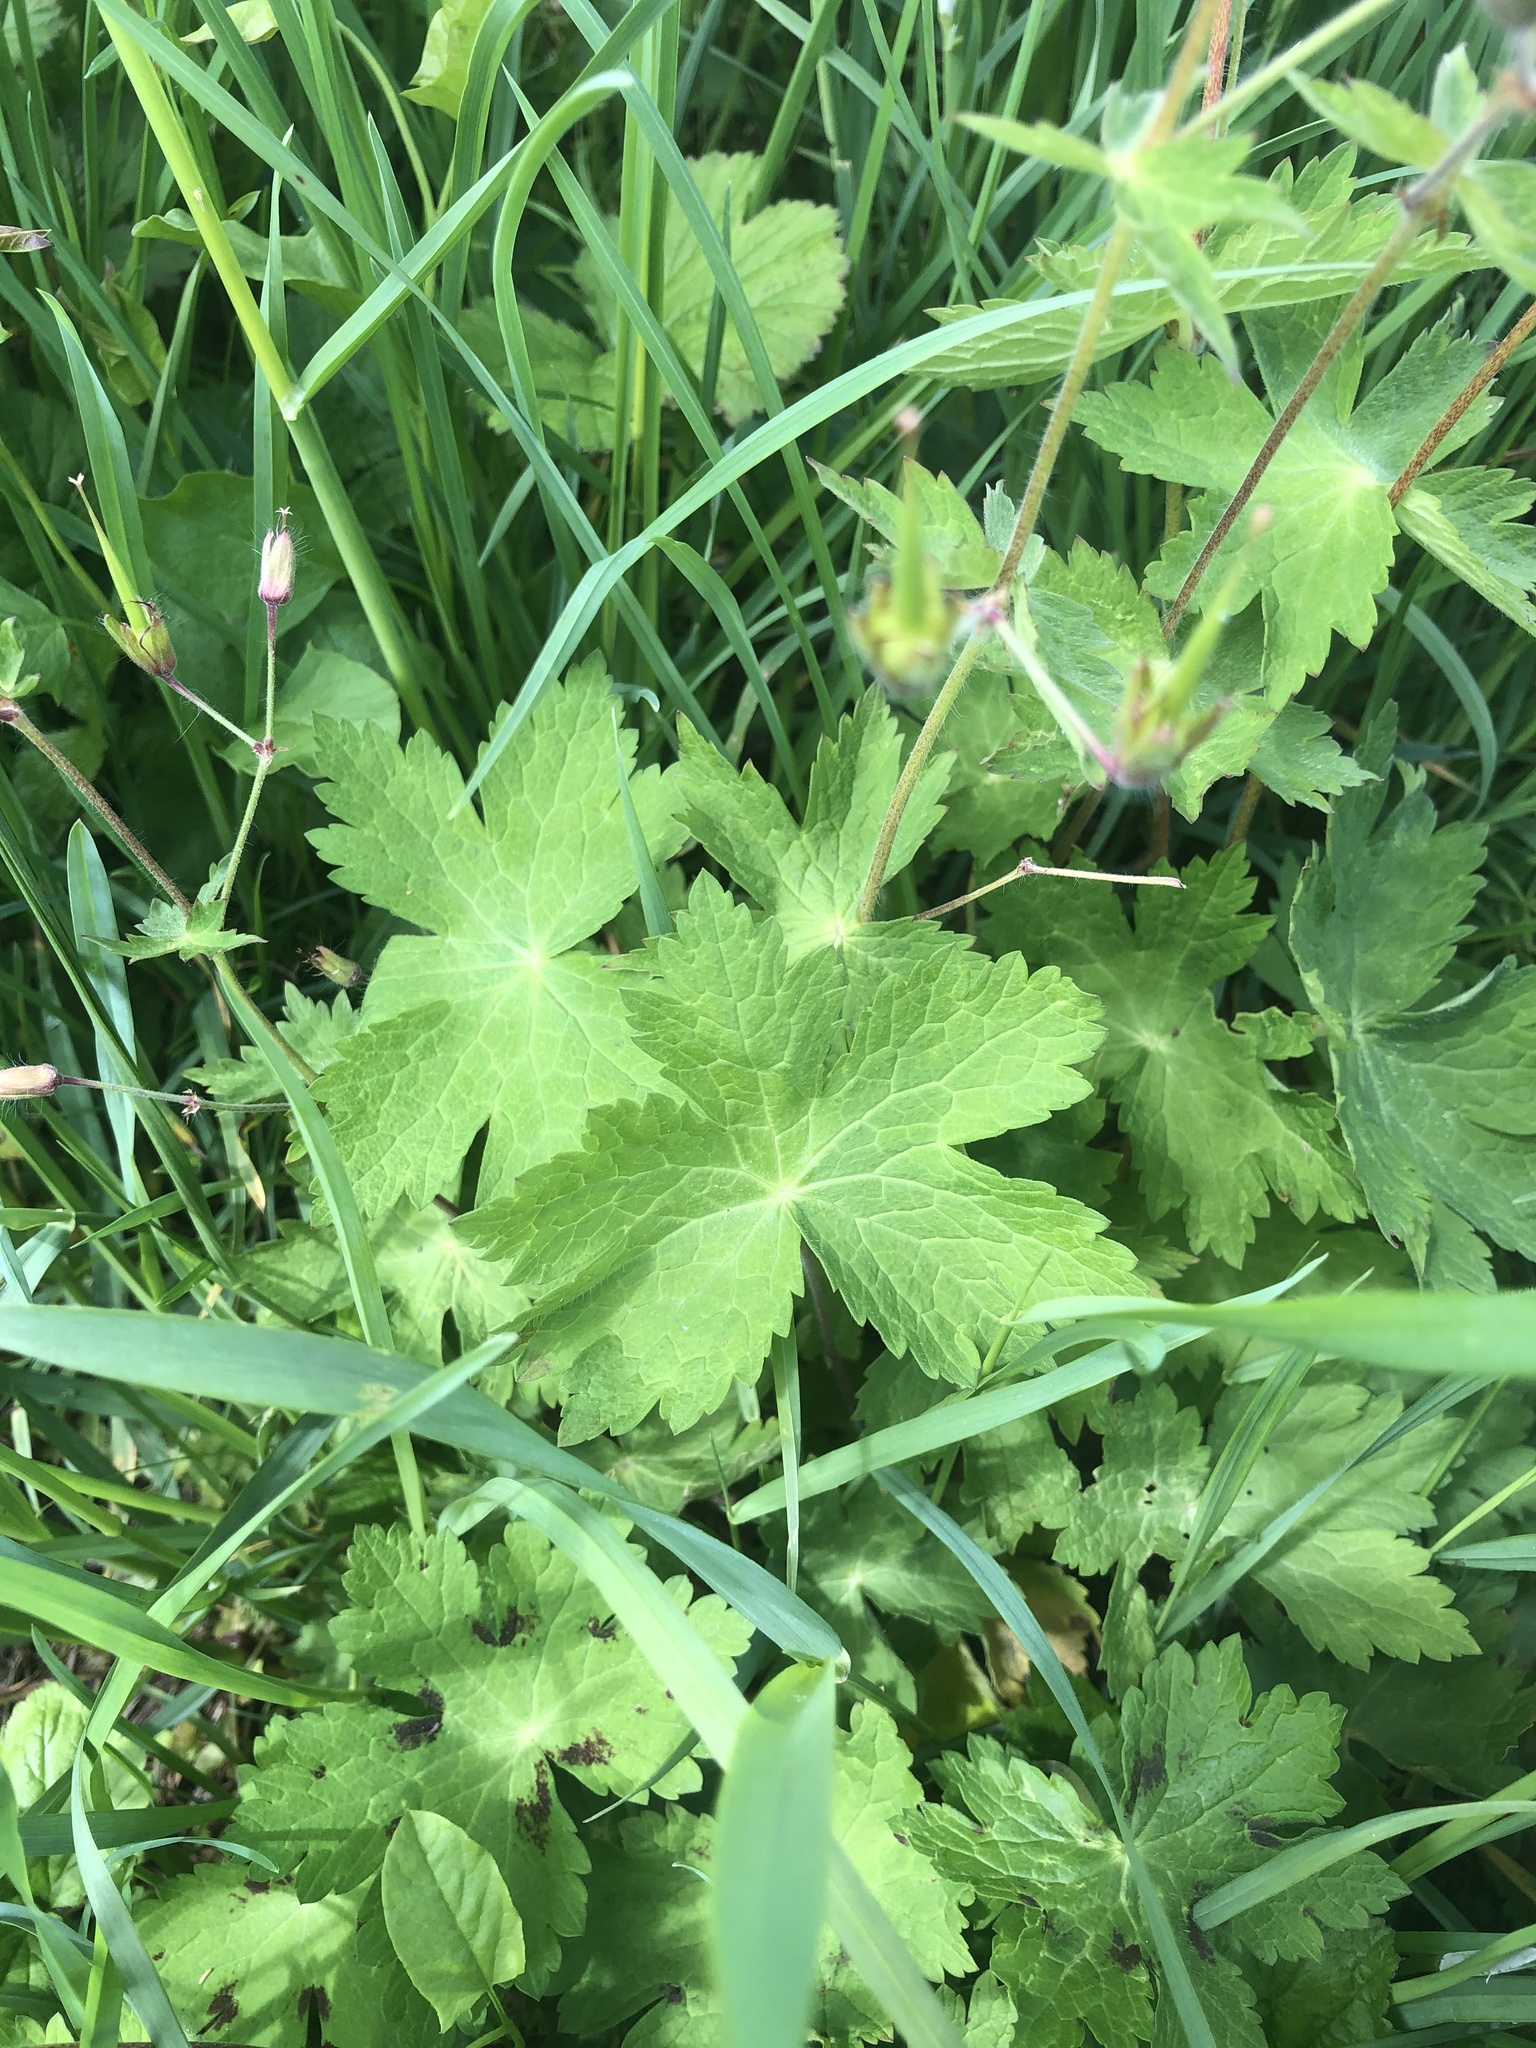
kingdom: Plantae
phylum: Tracheophyta
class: Magnoliopsida
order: Geraniales
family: Geraniaceae
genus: Geranium
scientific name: Geranium phaeum
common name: Dusky crane's-bill
